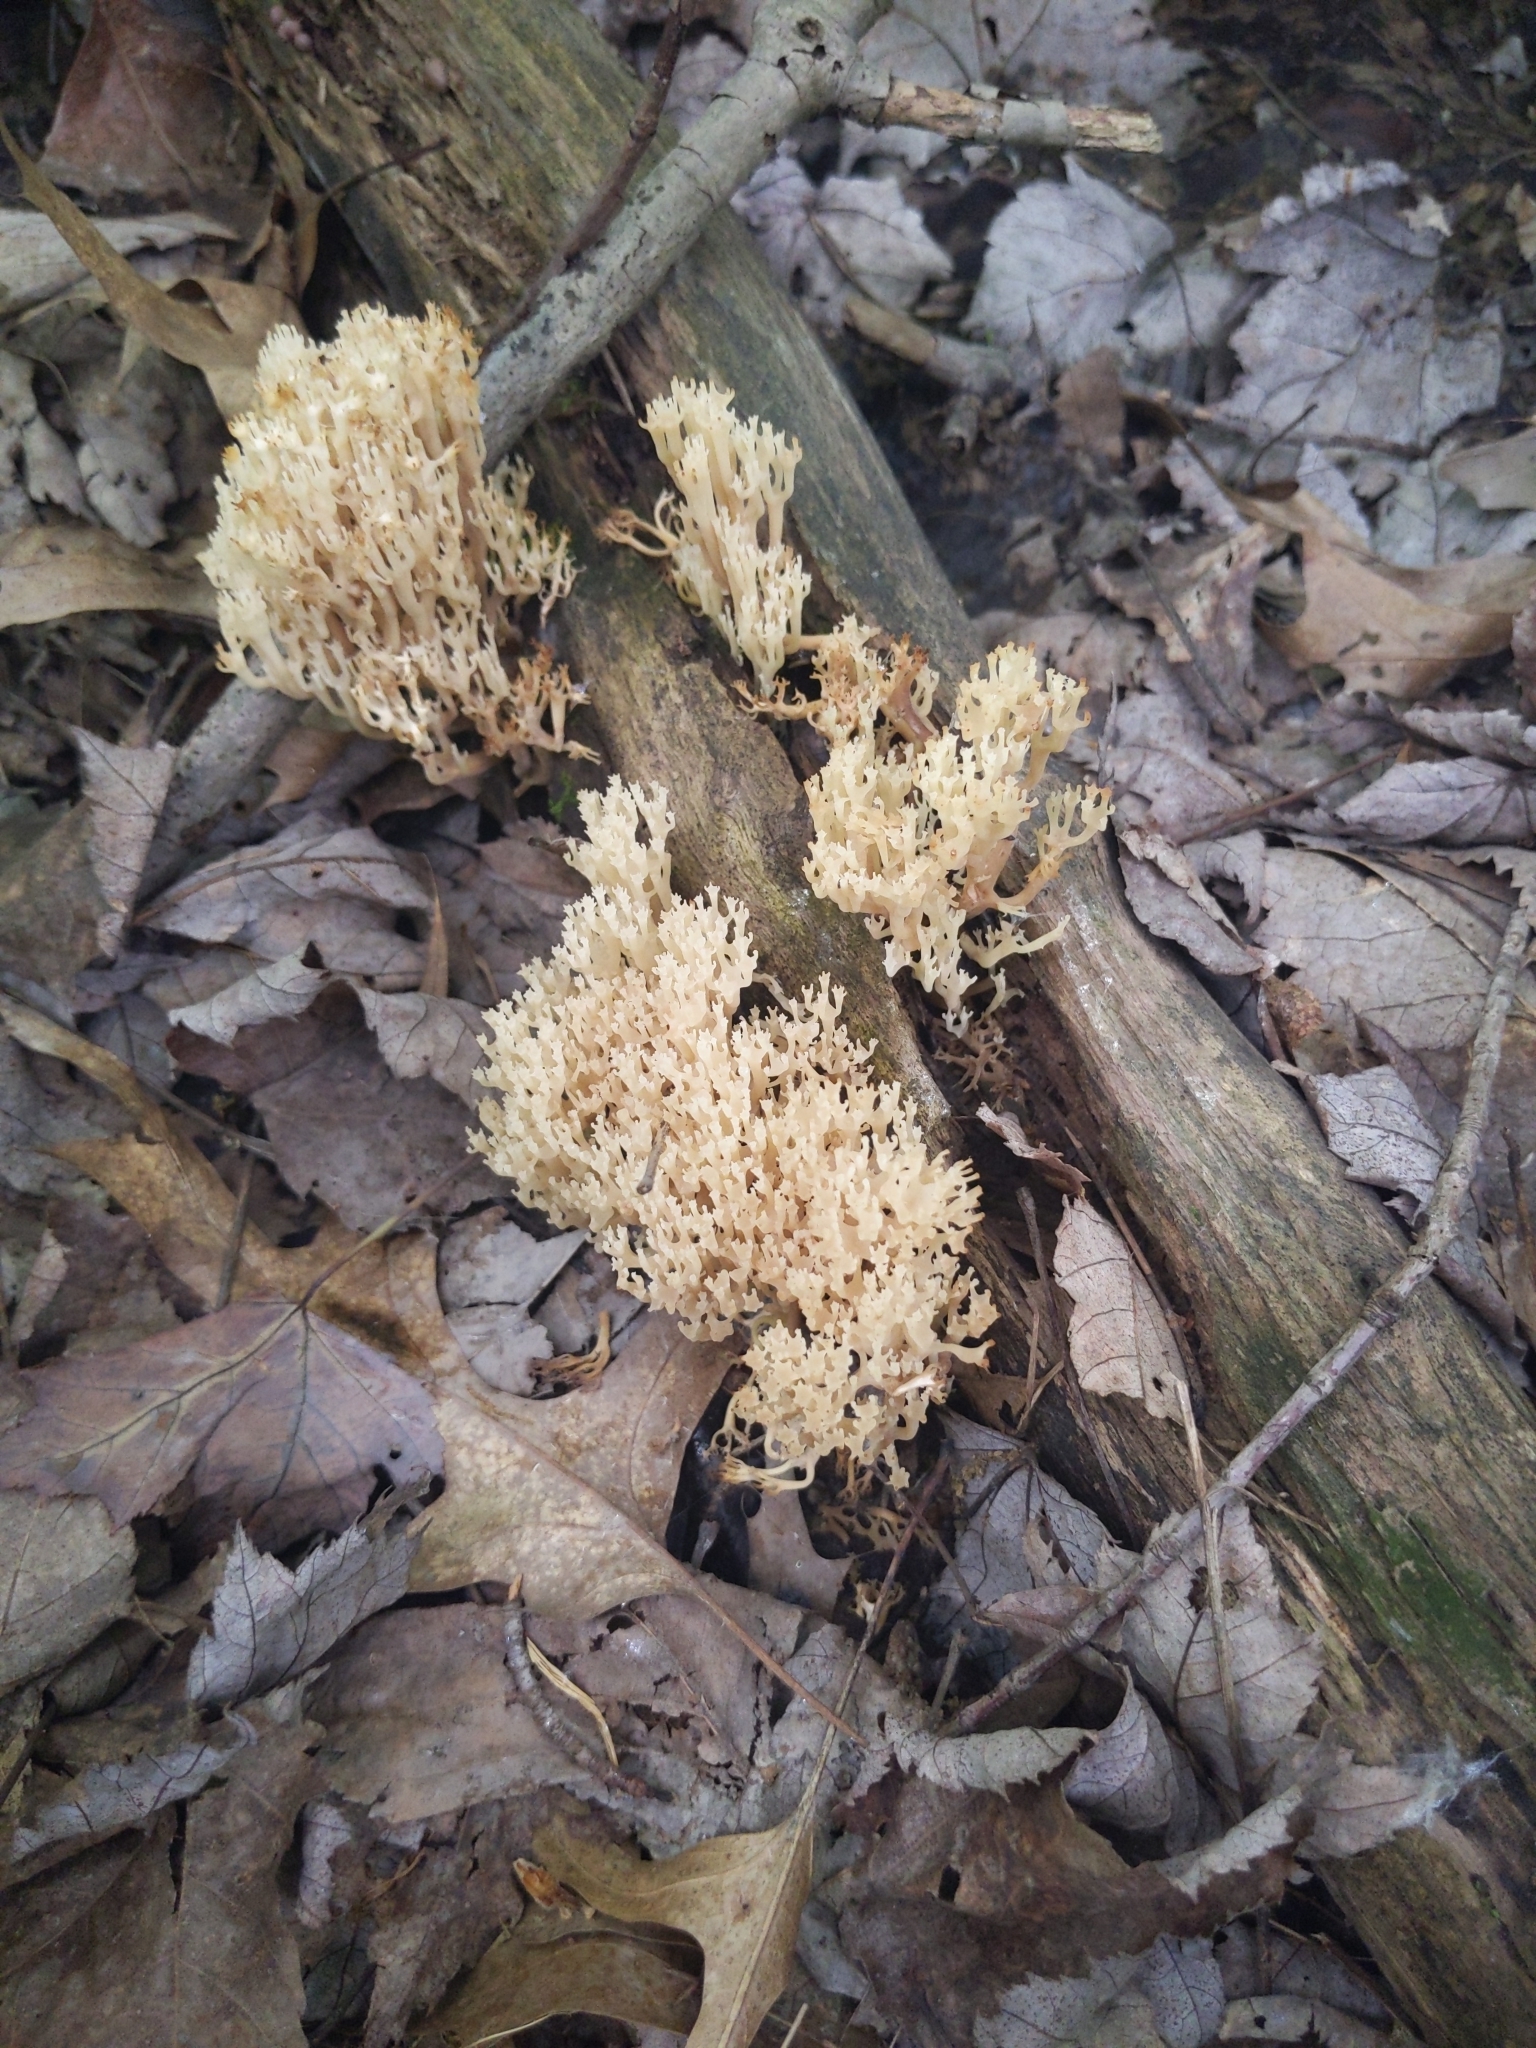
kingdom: Fungi
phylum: Basidiomycota
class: Agaricomycetes
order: Russulales
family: Auriscalpiaceae
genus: Artomyces
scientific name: Artomyces pyxidatus
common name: Crown-tipped coral fungus
